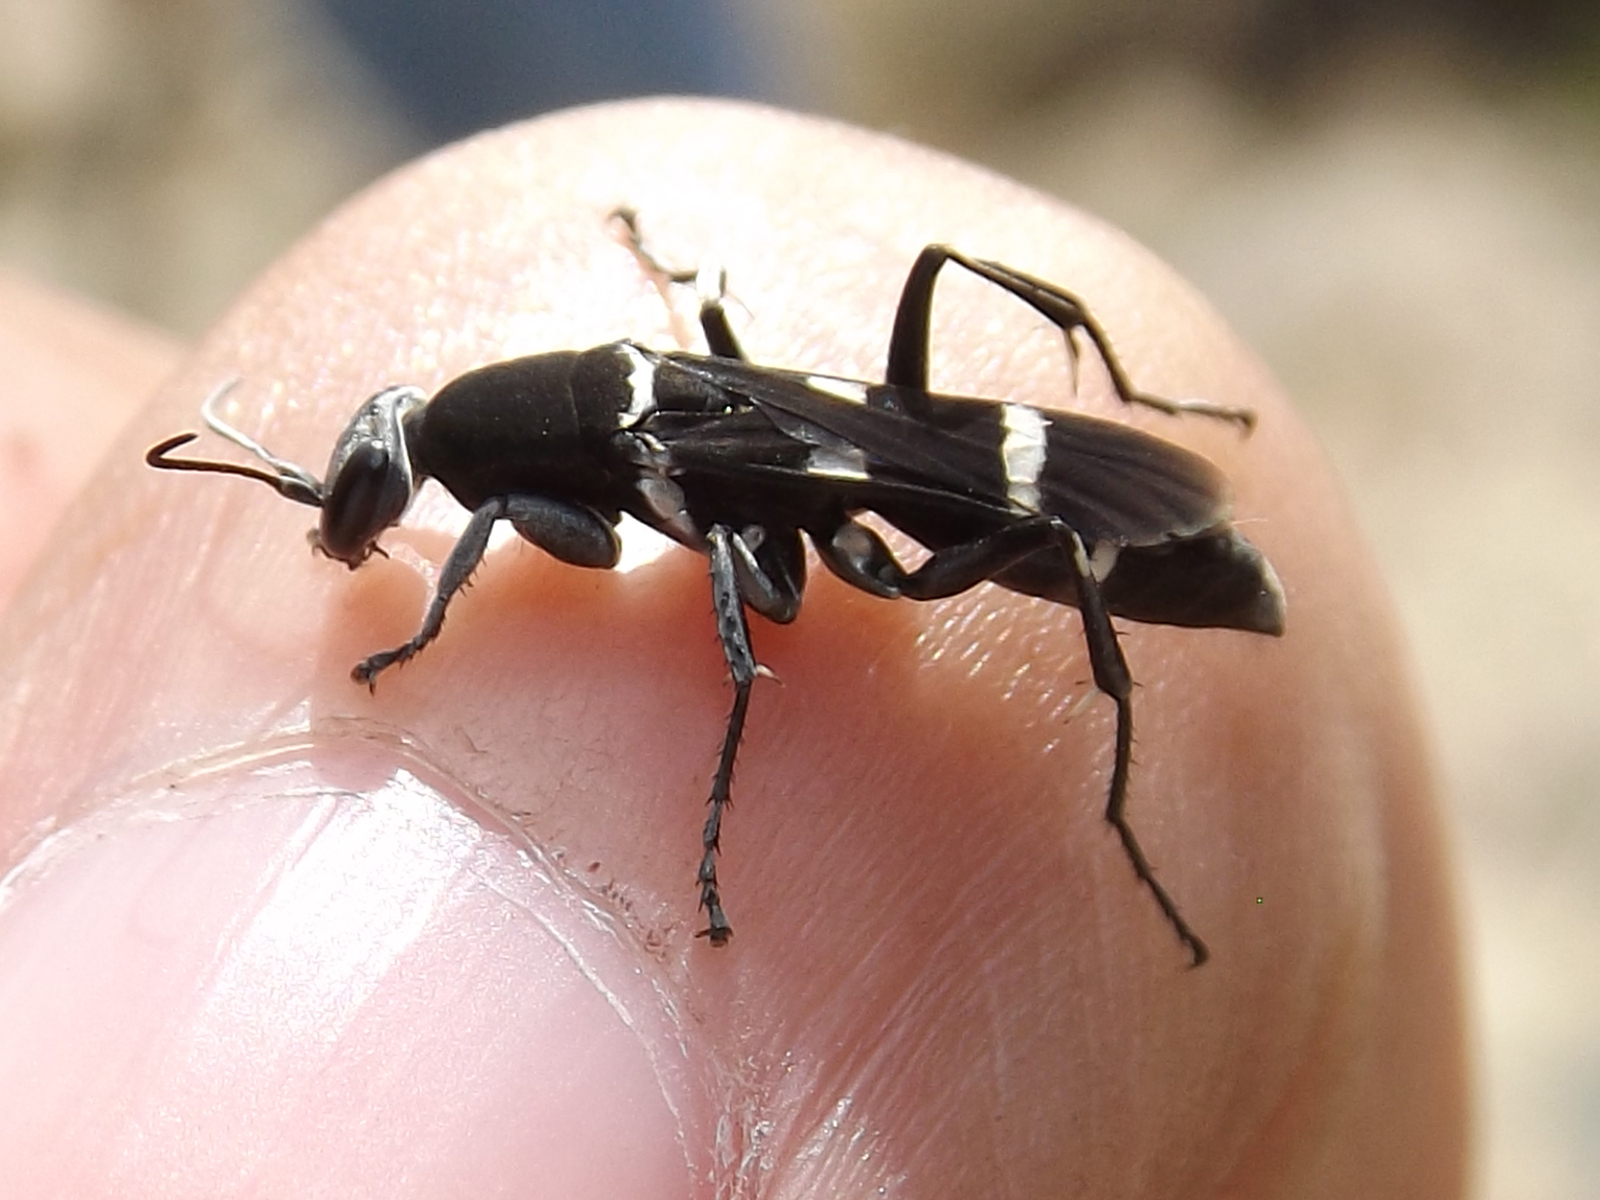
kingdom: Animalia
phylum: Arthropoda
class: Insecta
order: Hymenoptera
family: Pompilidae
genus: Euplaniceps
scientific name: Euplaniceps saussurei
